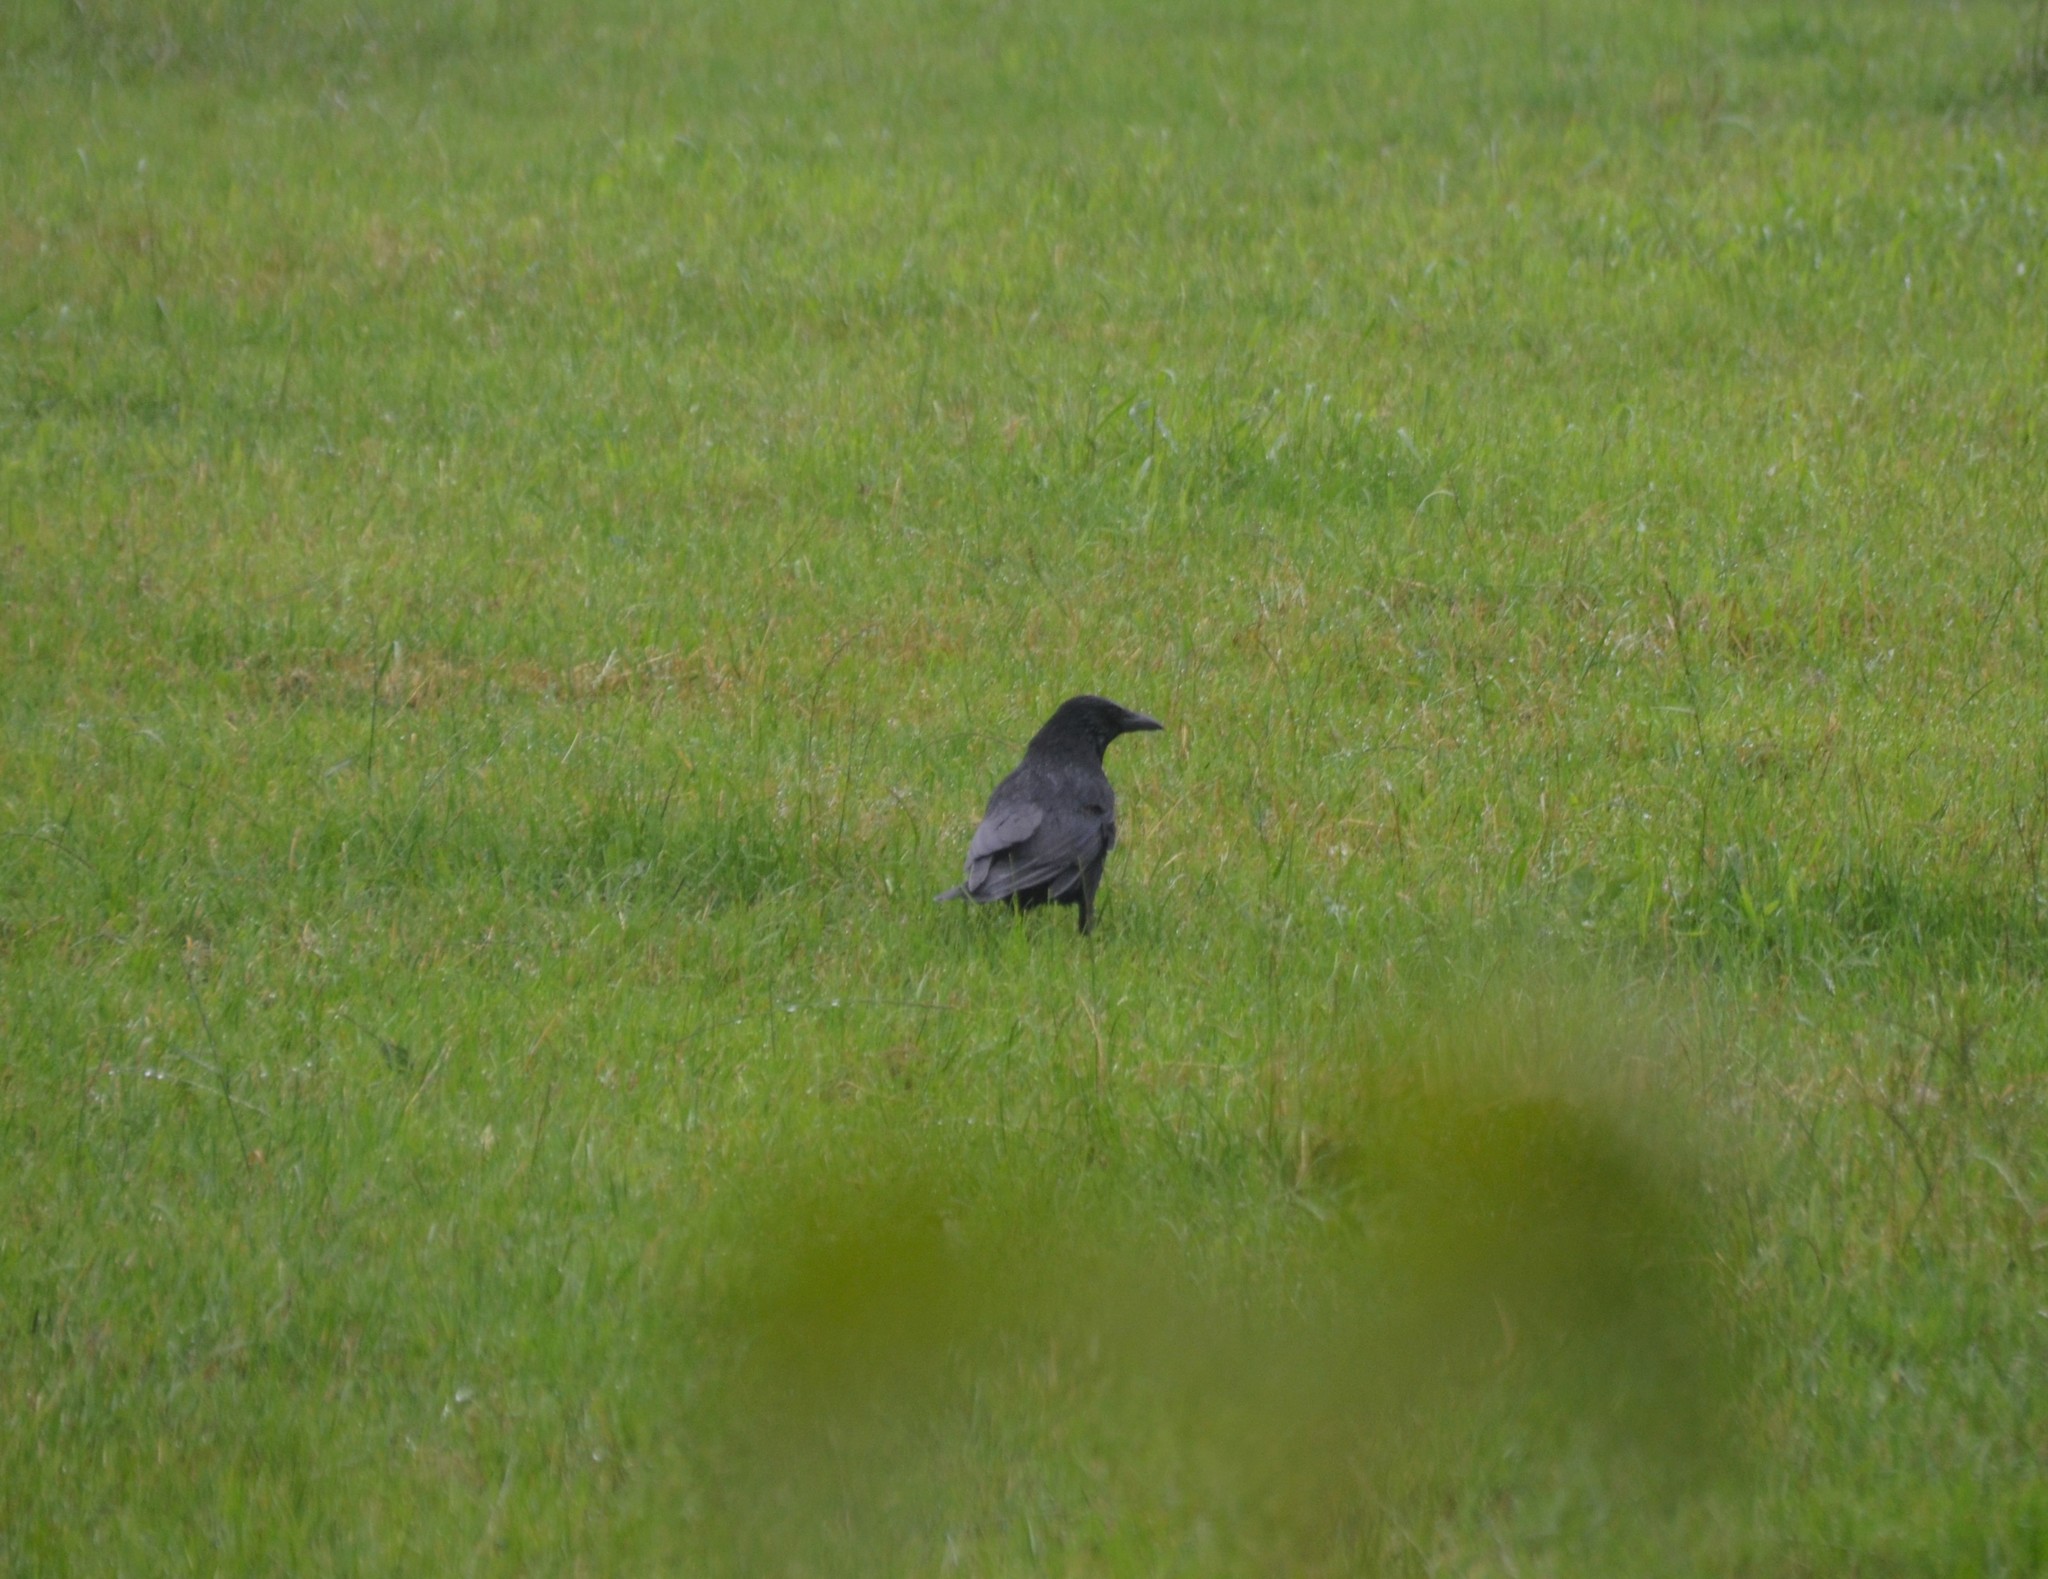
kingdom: Animalia
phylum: Chordata
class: Aves
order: Passeriformes
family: Corvidae
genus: Corvus
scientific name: Corvus corone
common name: Carrion crow
